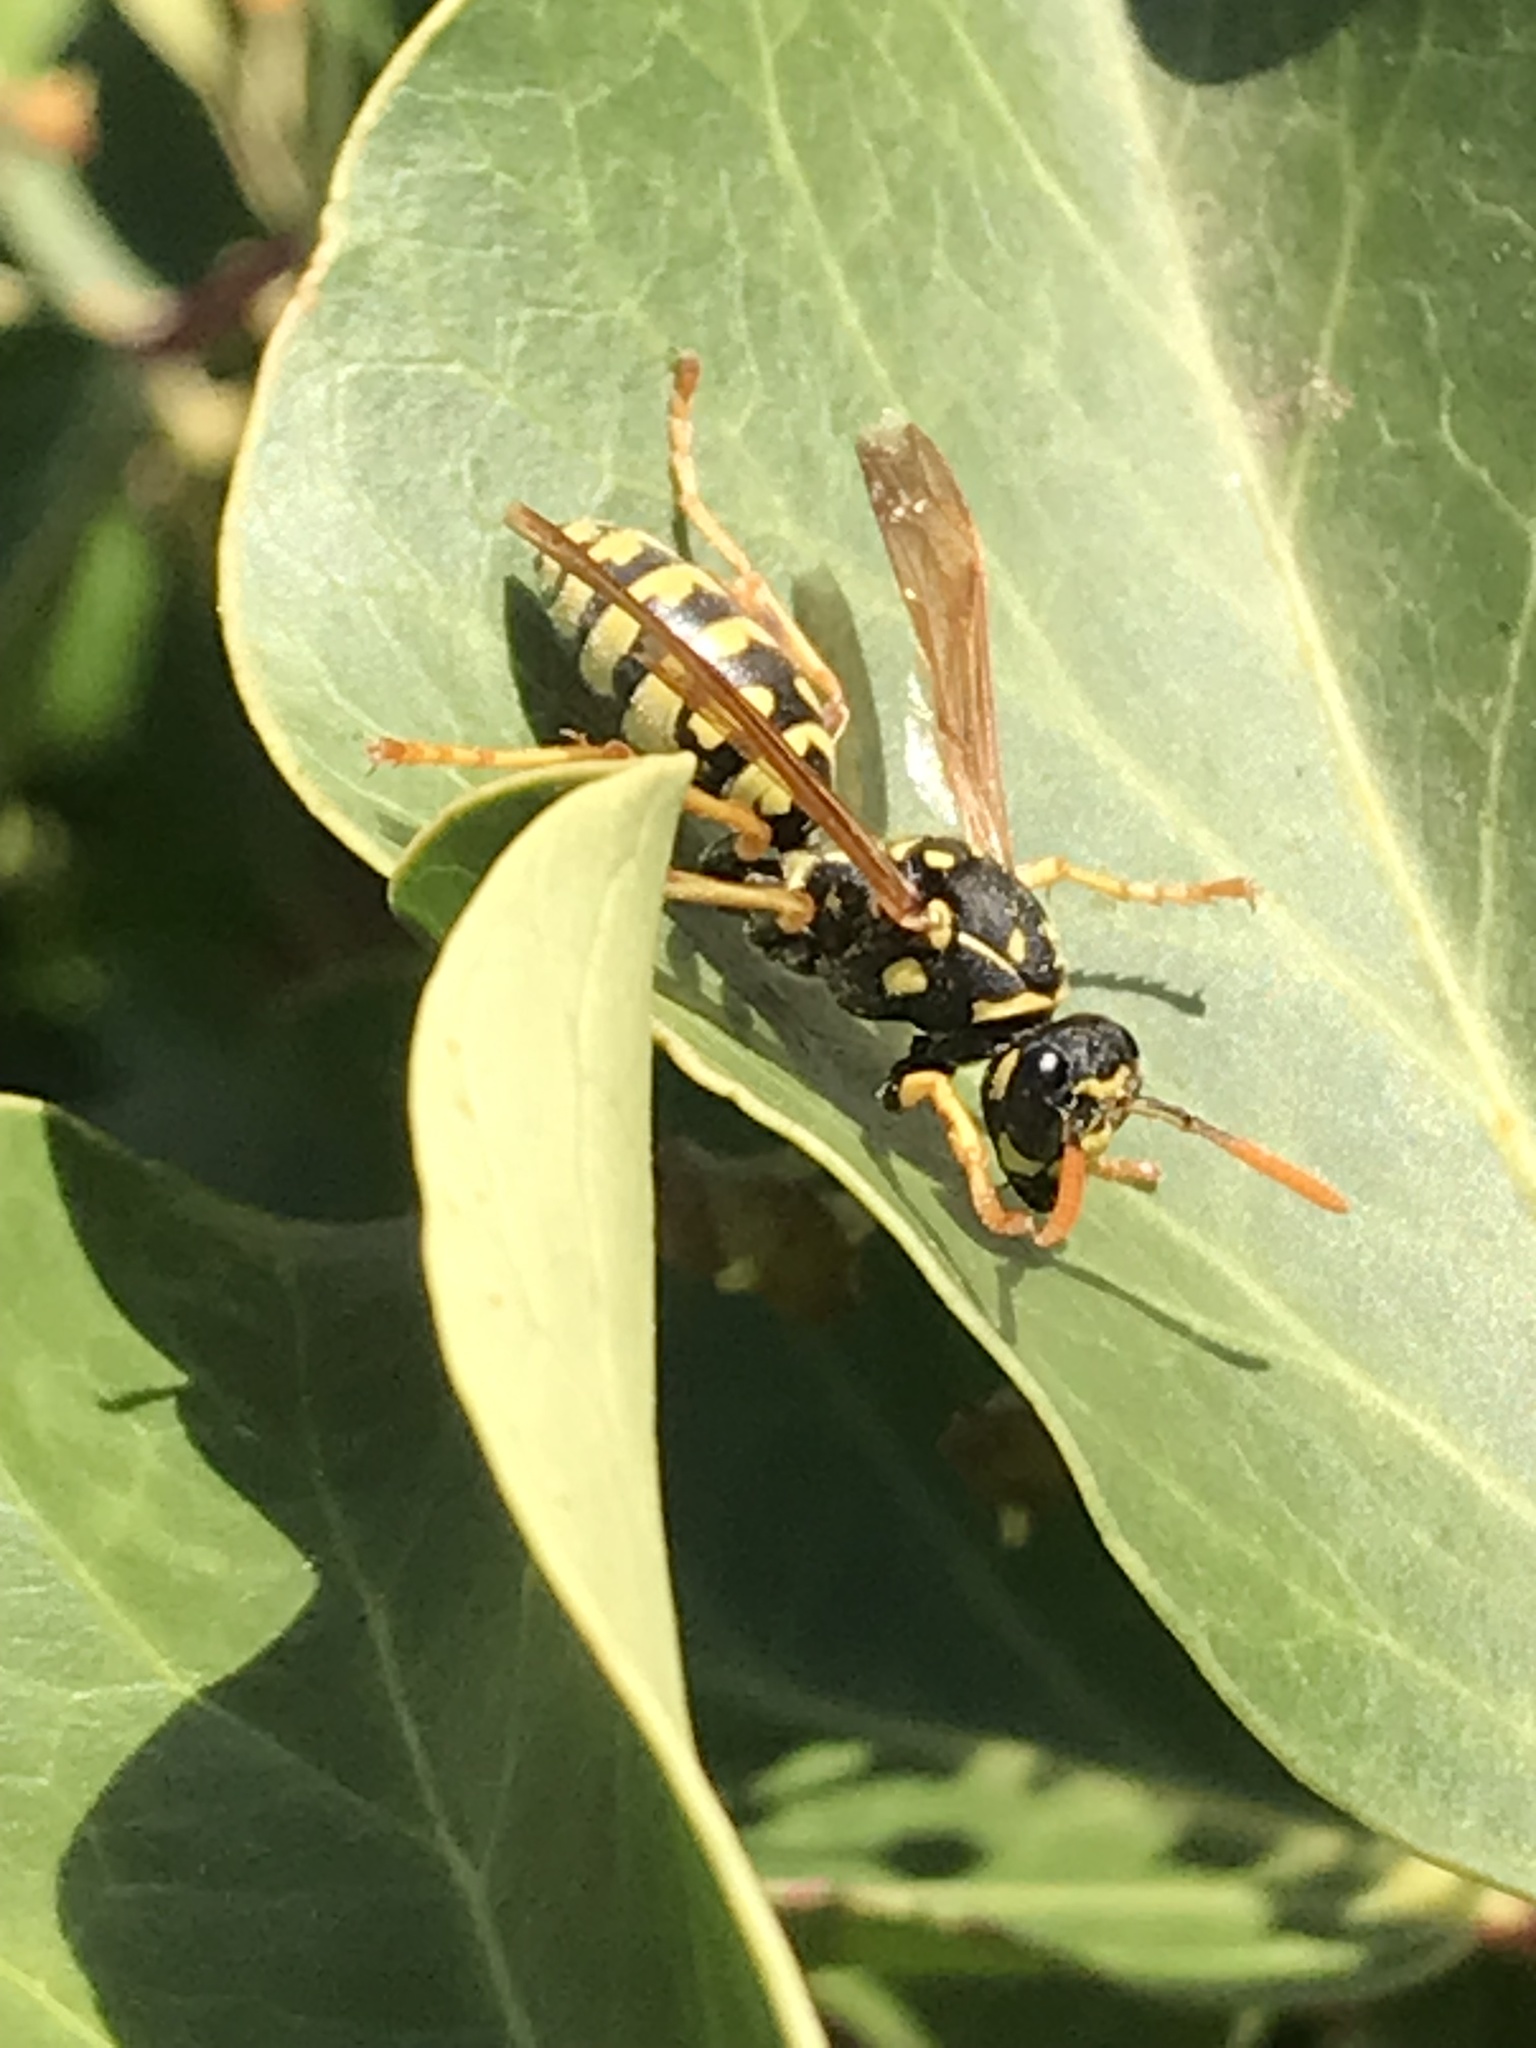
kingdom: Animalia
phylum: Arthropoda
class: Insecta
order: Hymenoptera
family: Eumenidae
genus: Polistes
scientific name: Polistes dominula
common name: Paper wasp
